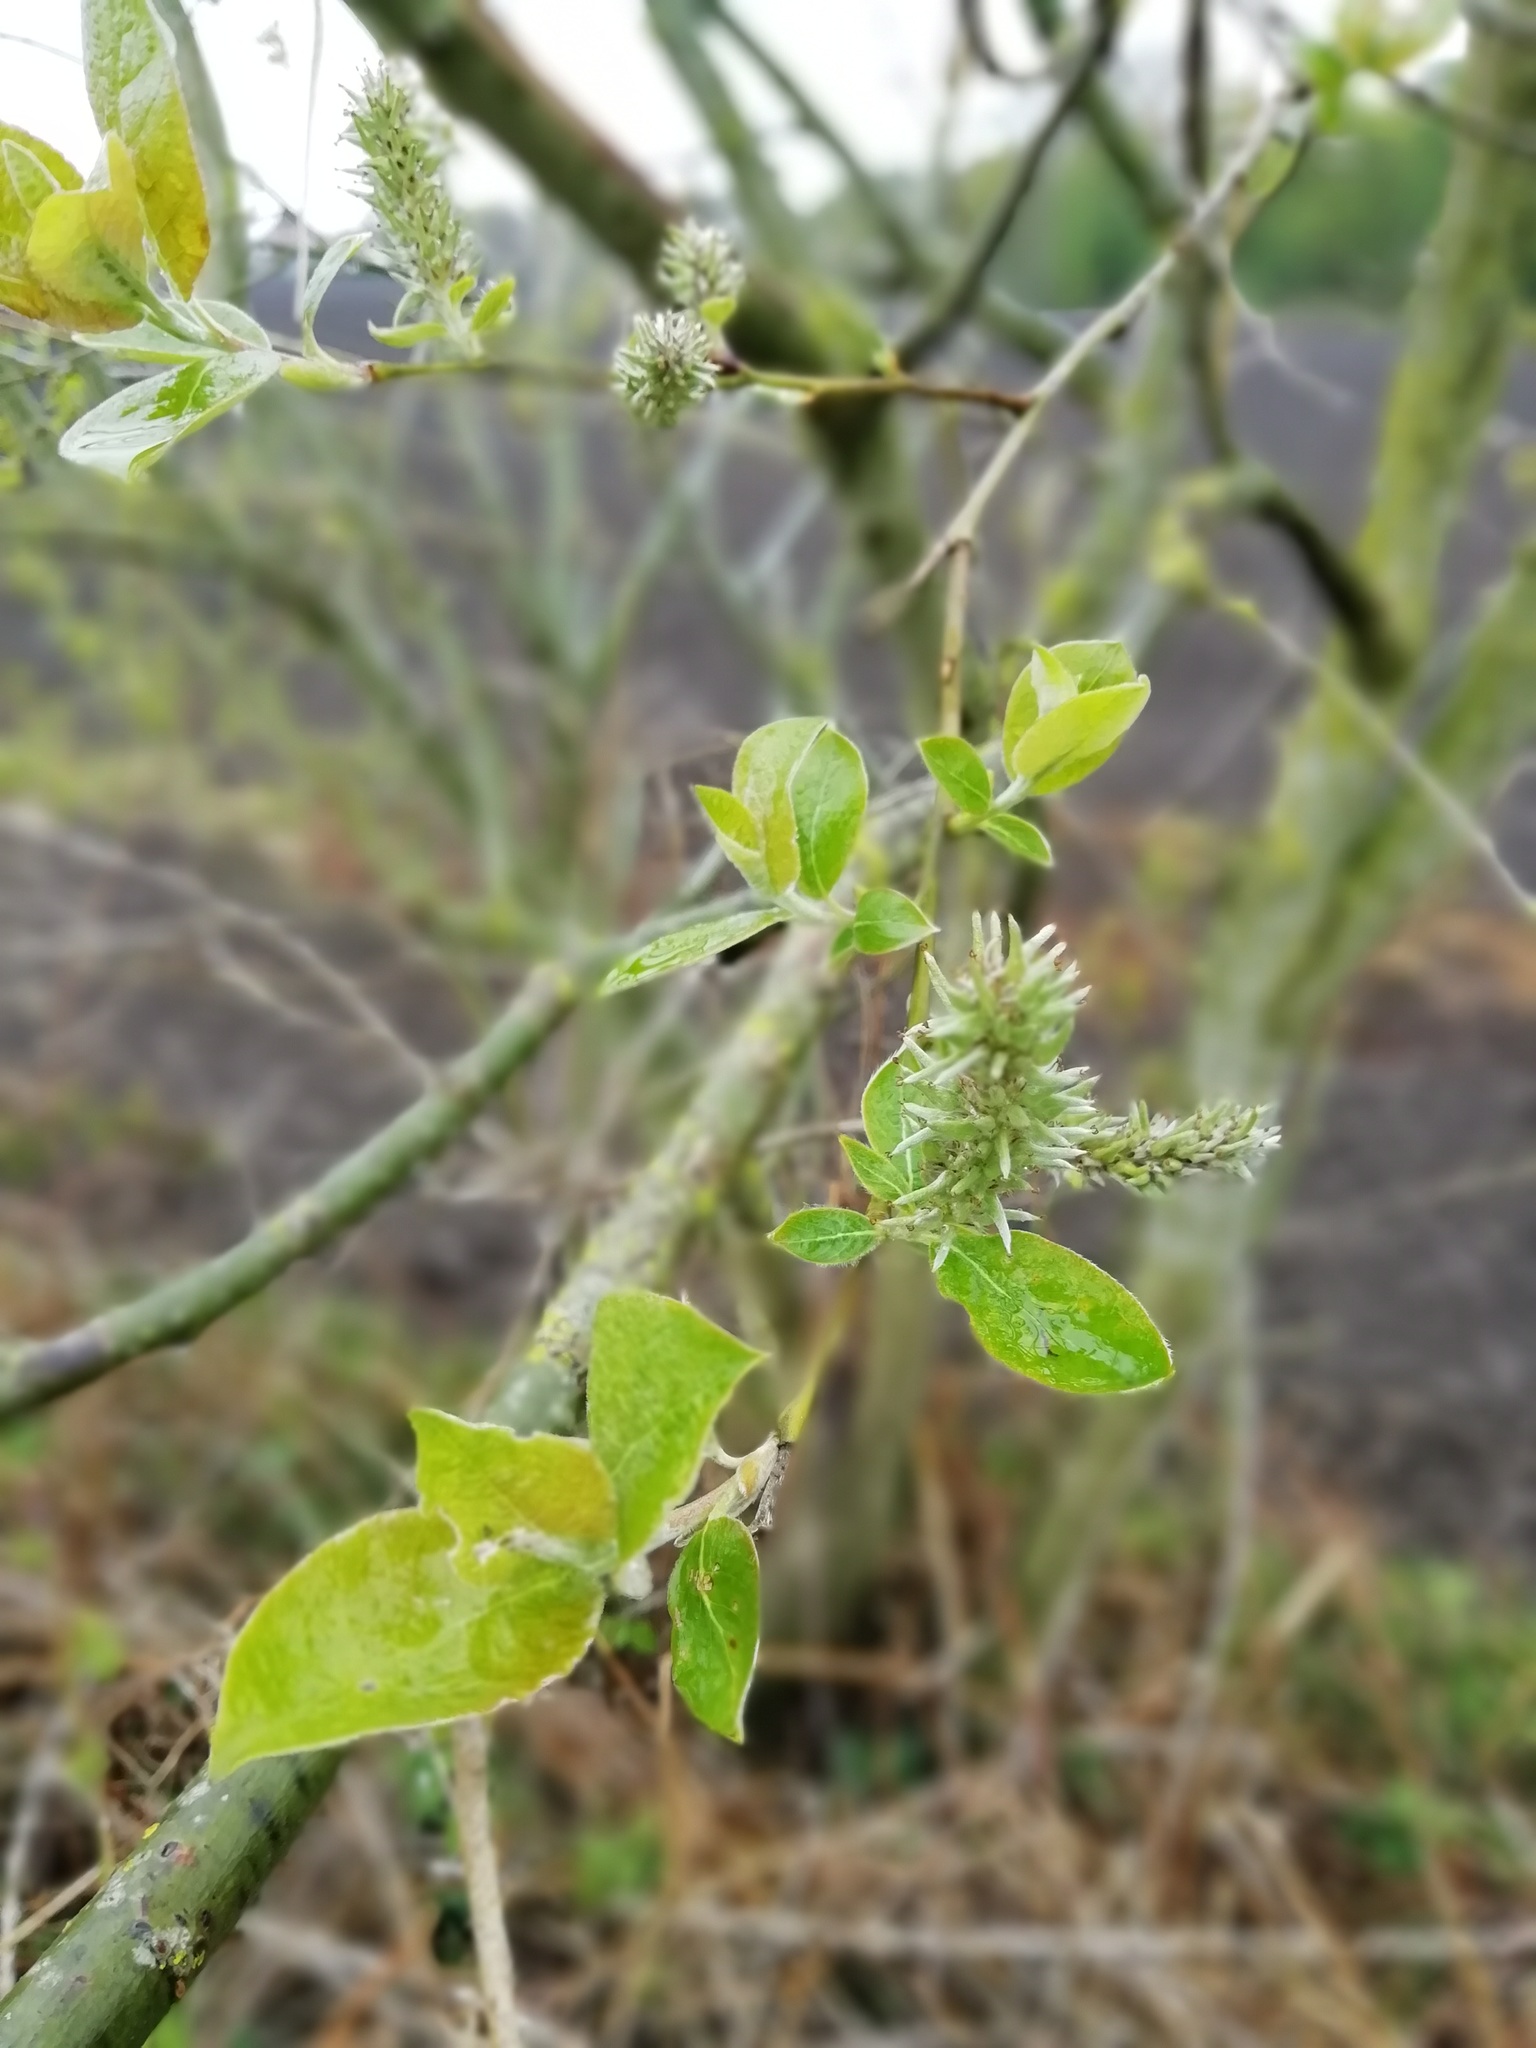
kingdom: Plantae
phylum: Tracheophyta
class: Magnoliopsida
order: Malpighiales
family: Salicaceae
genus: Salix
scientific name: Salix caprea
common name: Goat willow
